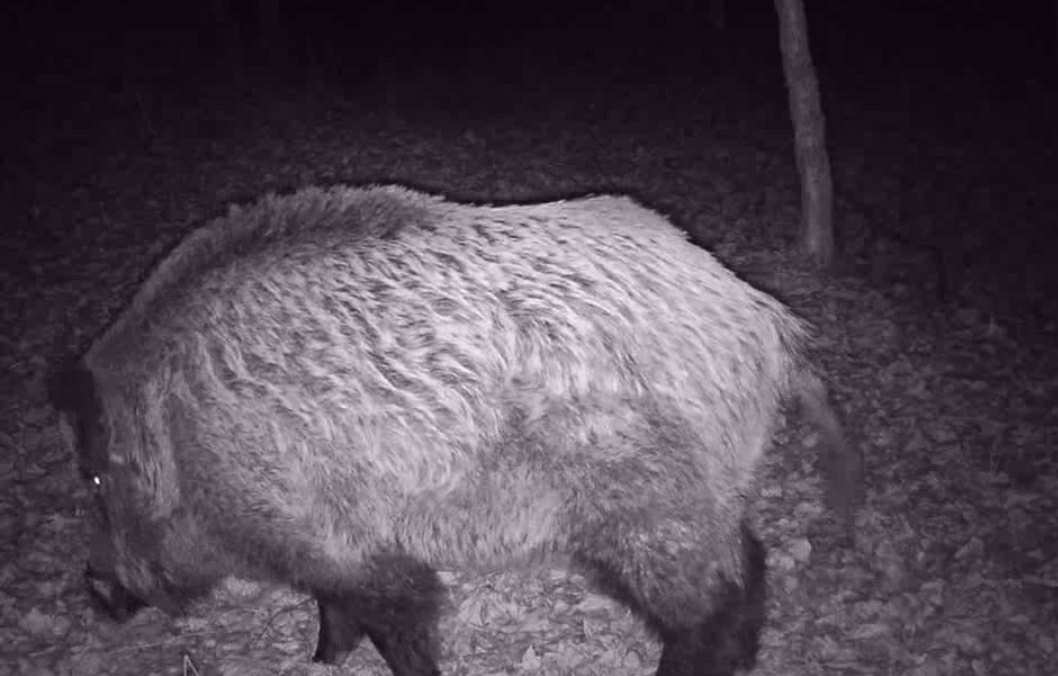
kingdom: Animalia
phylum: Chordata
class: Mammalia
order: Artiodactyla
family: Suidae
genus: Sus
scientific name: Sus scrofa
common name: Wild boar
